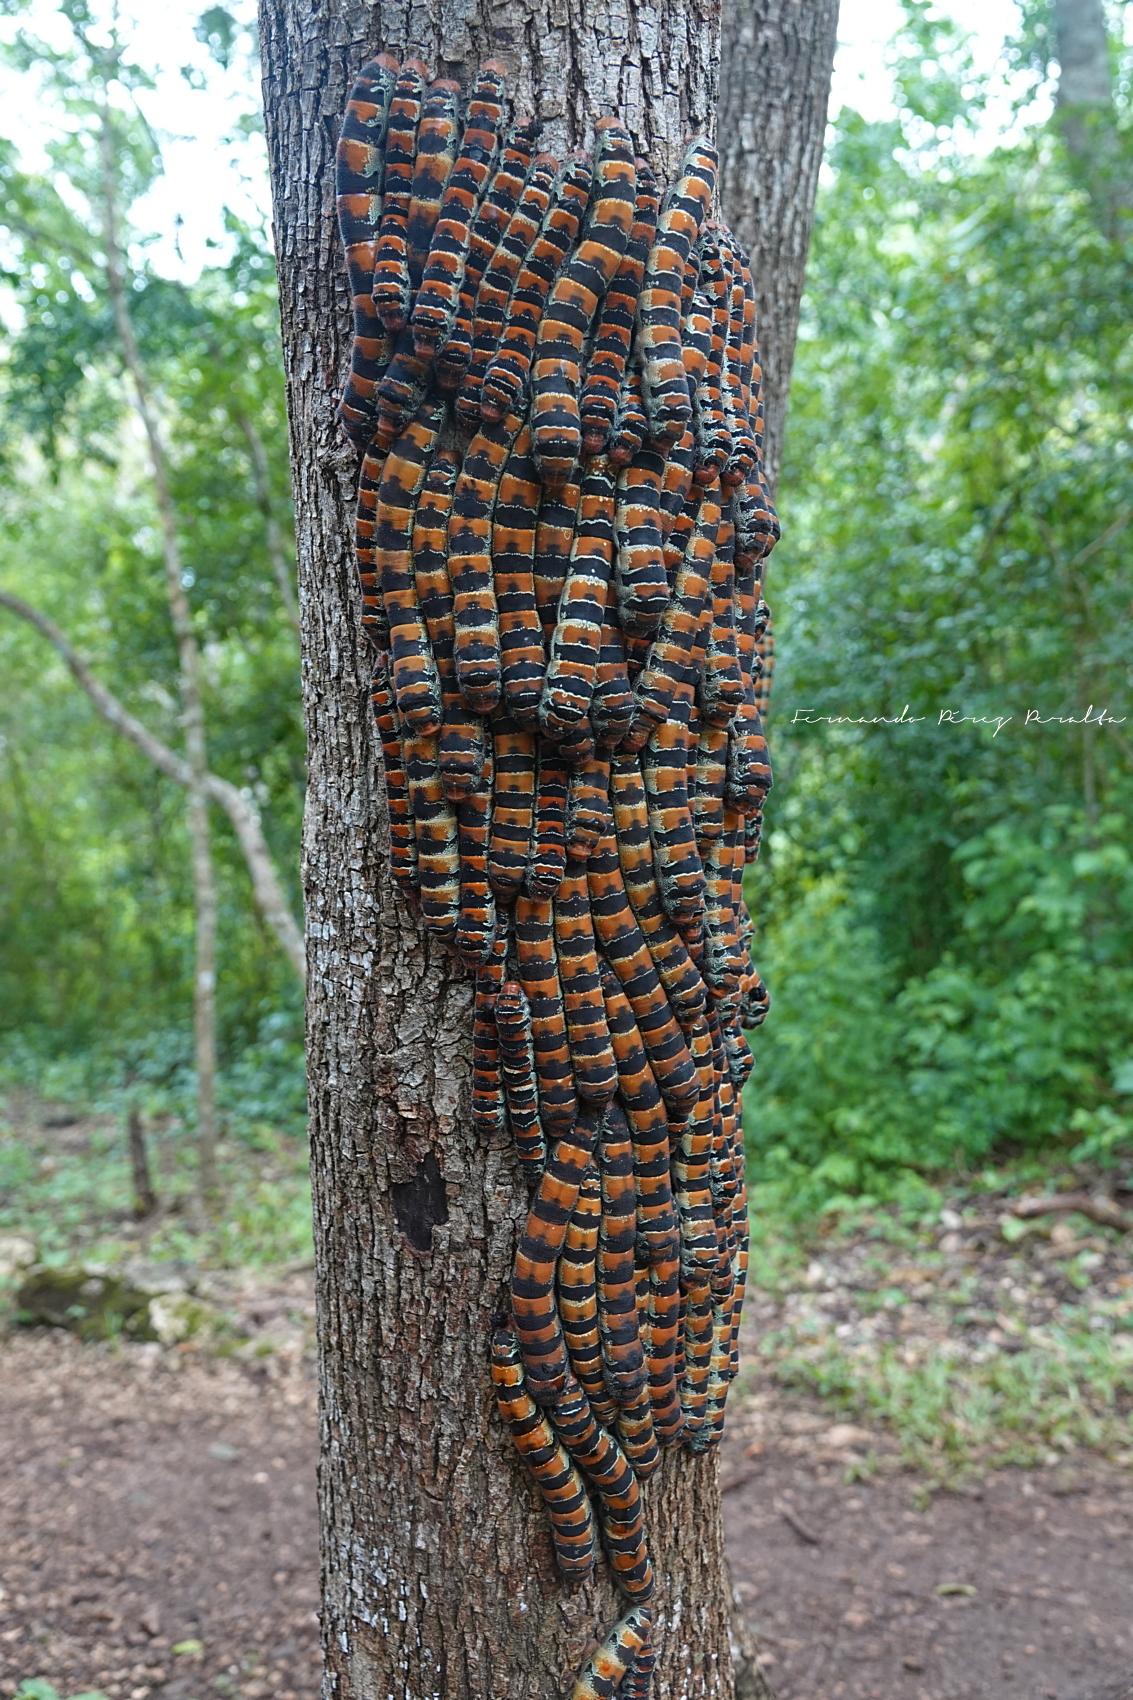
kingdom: Animalia
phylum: Arthropoda
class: Insecta
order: Lepidoptera
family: Saturniidae
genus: Arsenura
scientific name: Arsenura armida
